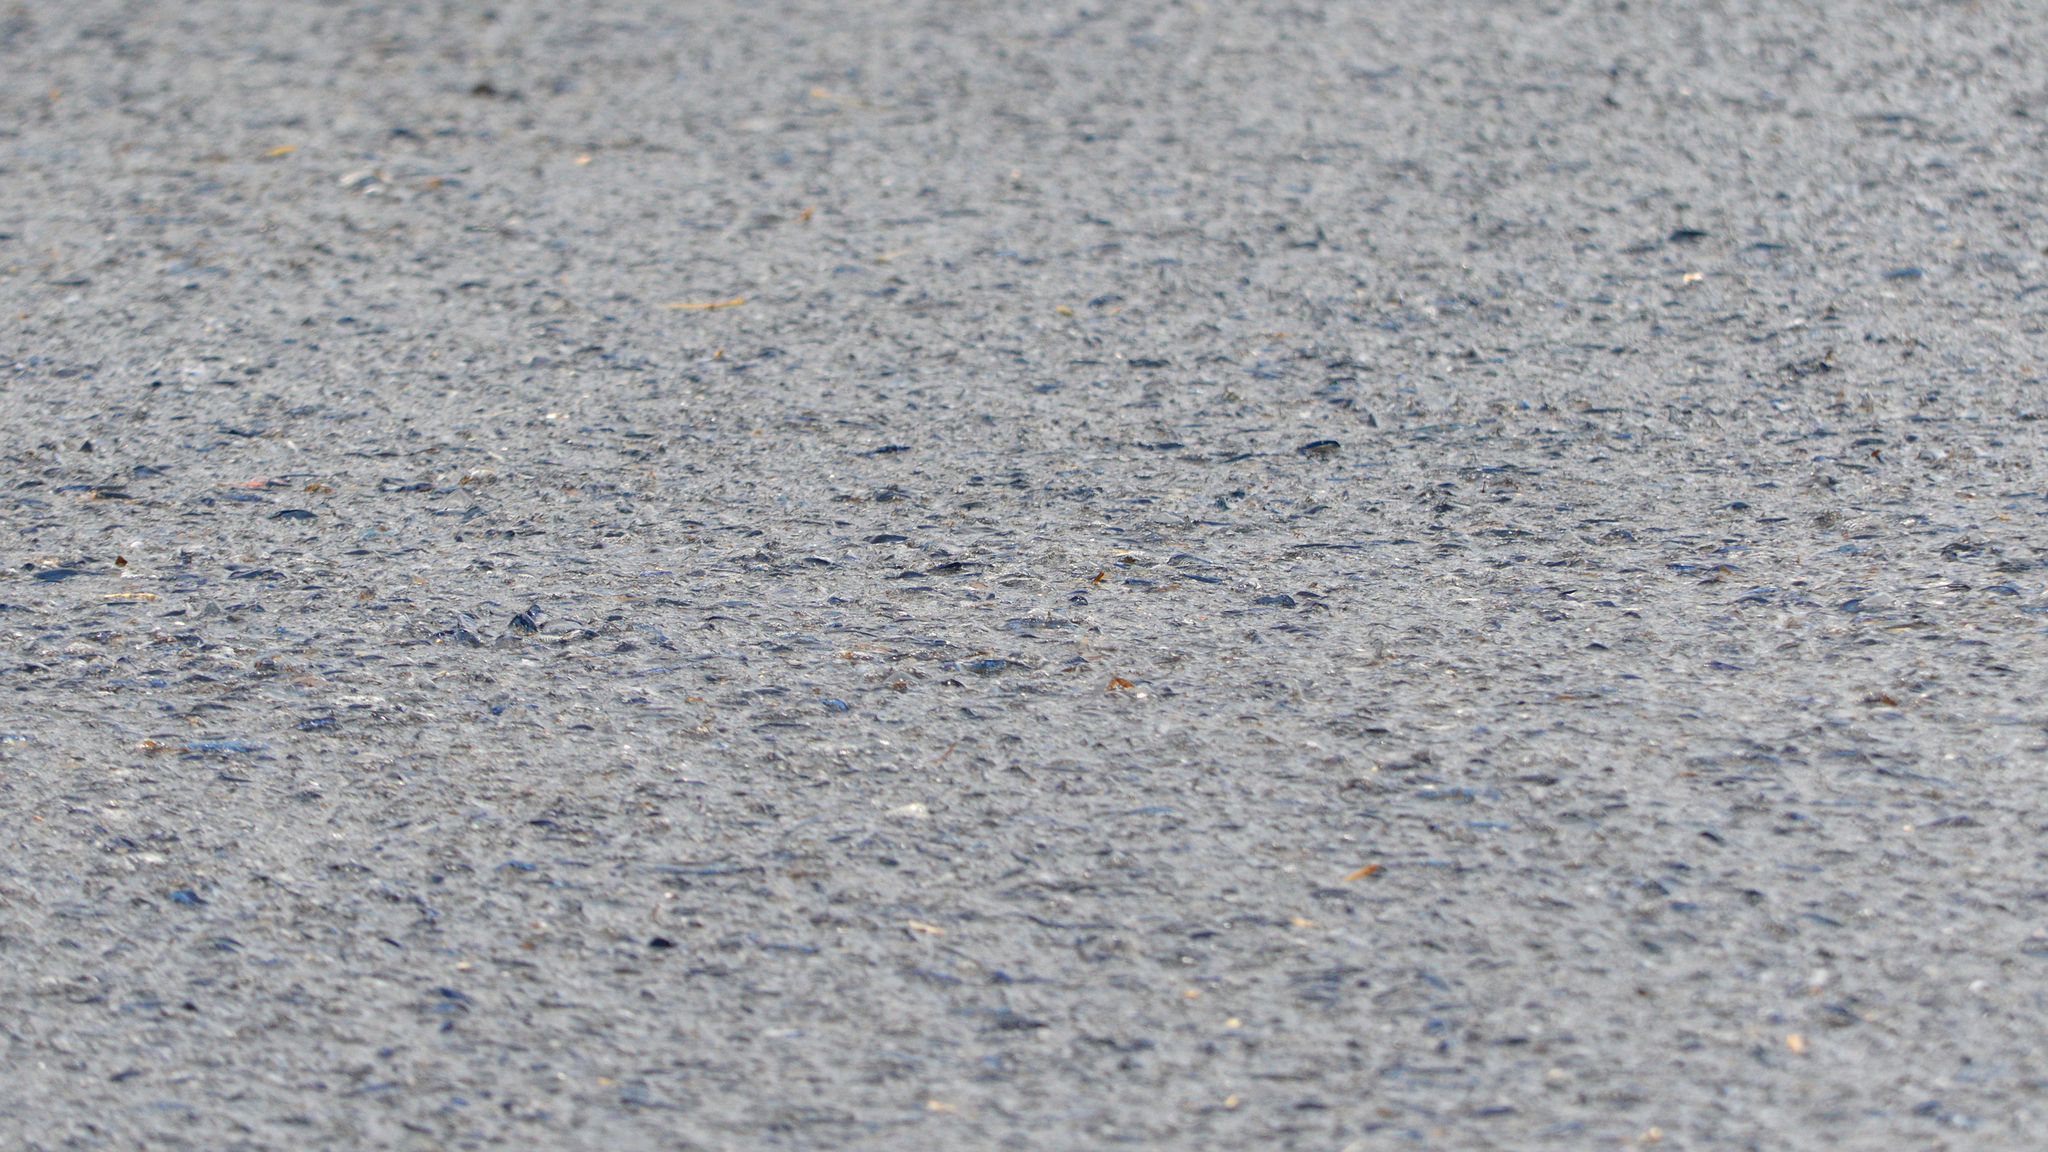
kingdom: Animalia
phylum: Cnidaria
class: Hydrozoa
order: Anthoathecata
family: Porpitidae
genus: Velella
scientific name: Velella velella
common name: By-the-wind-sailor
